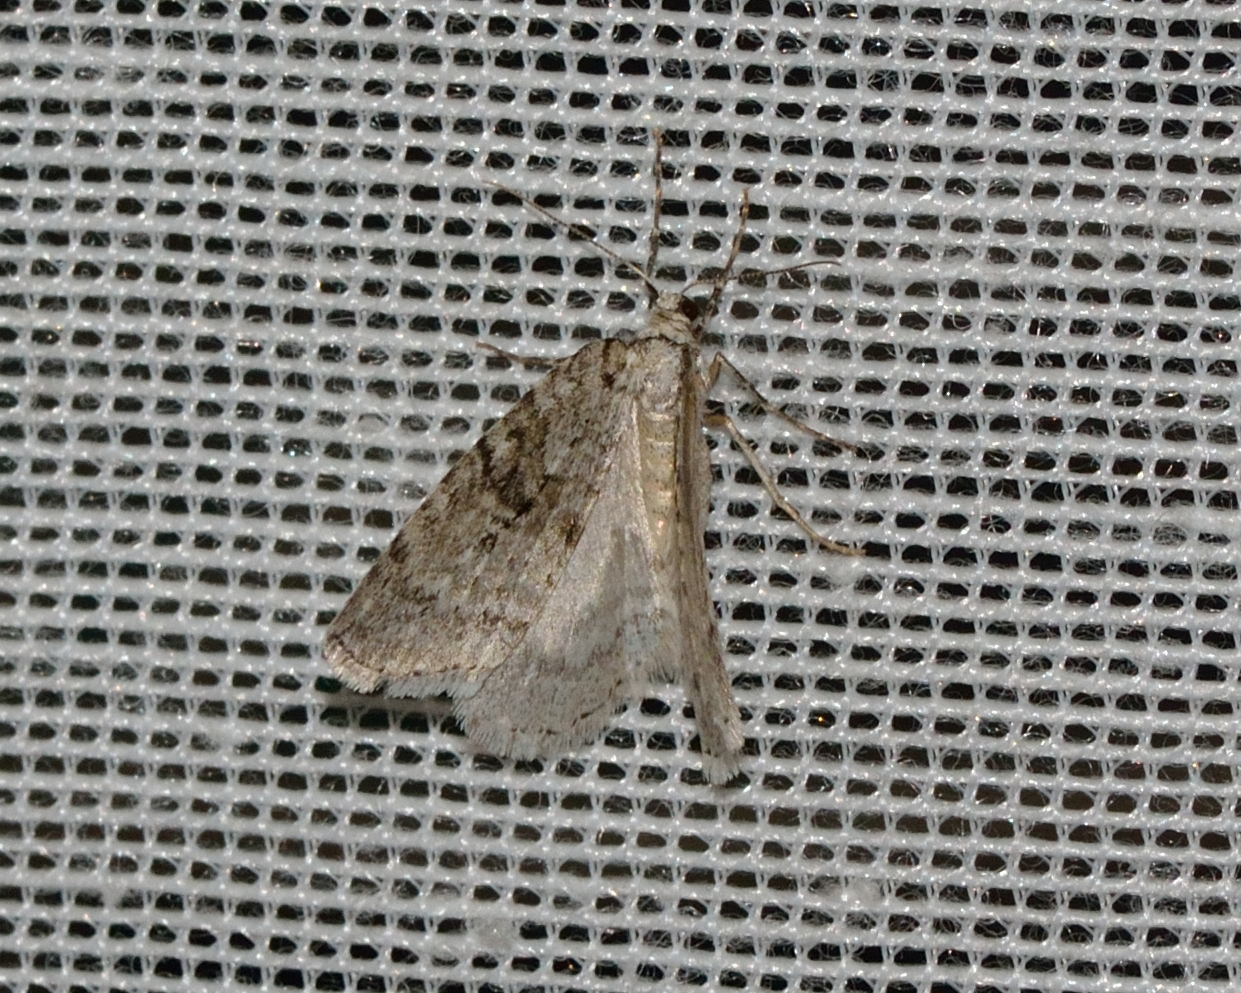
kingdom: Animalia
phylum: Arthropoda
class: Insecta
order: Lepidoptera
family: Geometridae
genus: Epirrita
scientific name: Epirrita autumnata
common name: Autumnal moth
